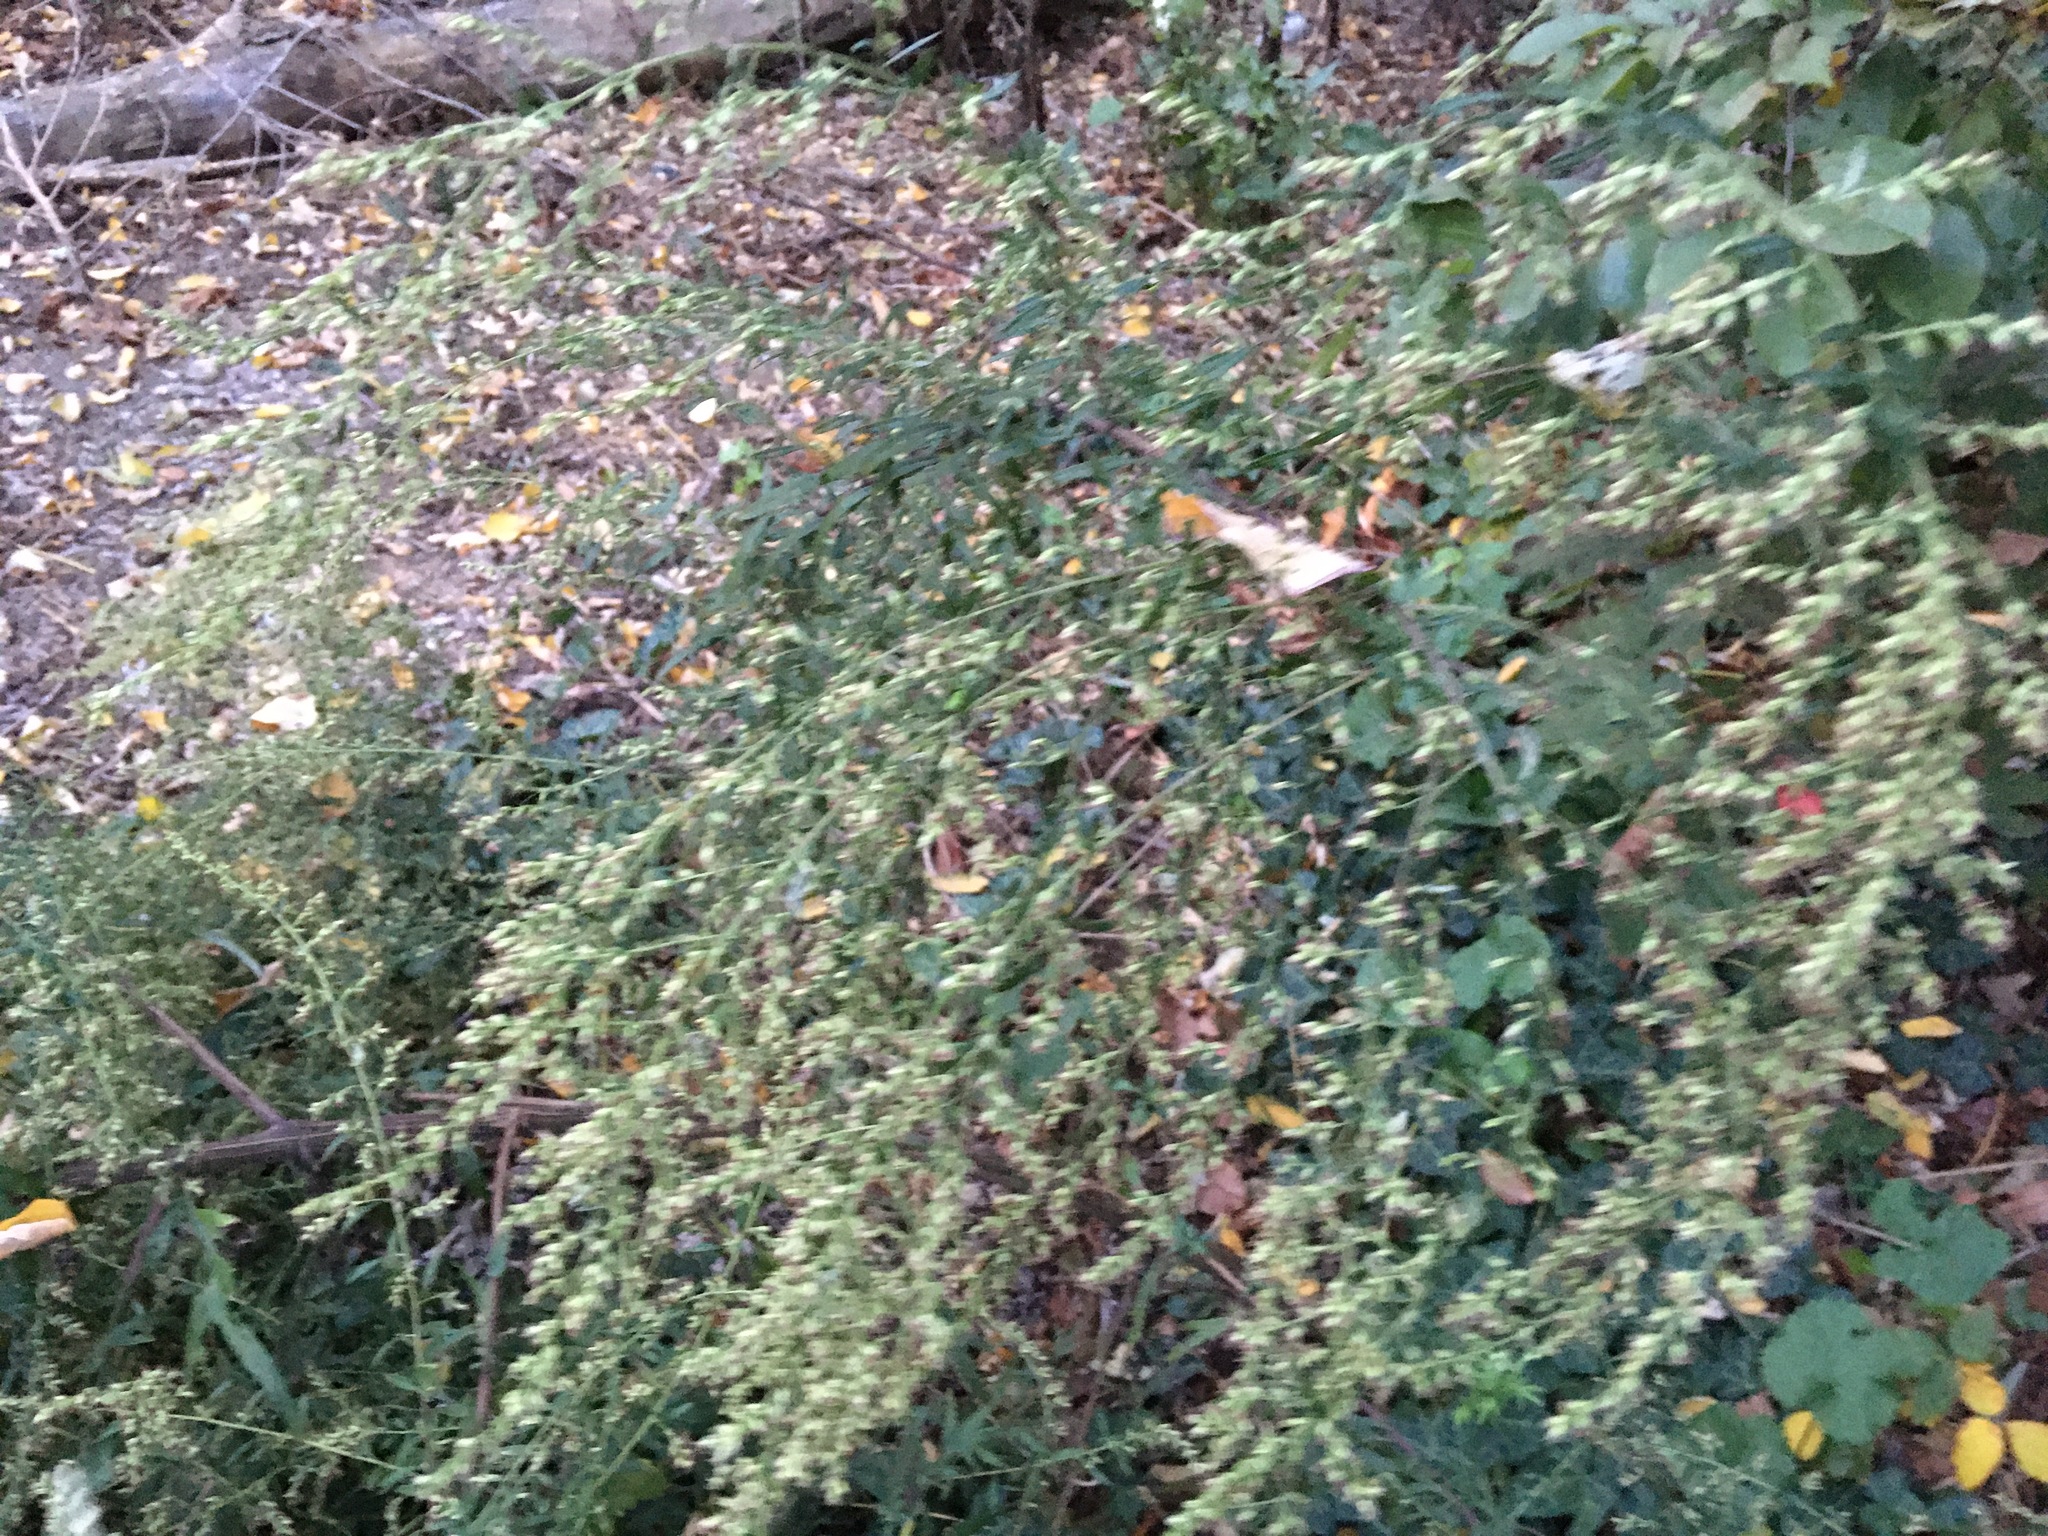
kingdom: Plantae
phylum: Tracheophyta
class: Magnoliopsida
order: Asterales
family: Asteraceae
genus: Artemisia
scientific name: Artemisia vulgaris
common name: Mugwort
